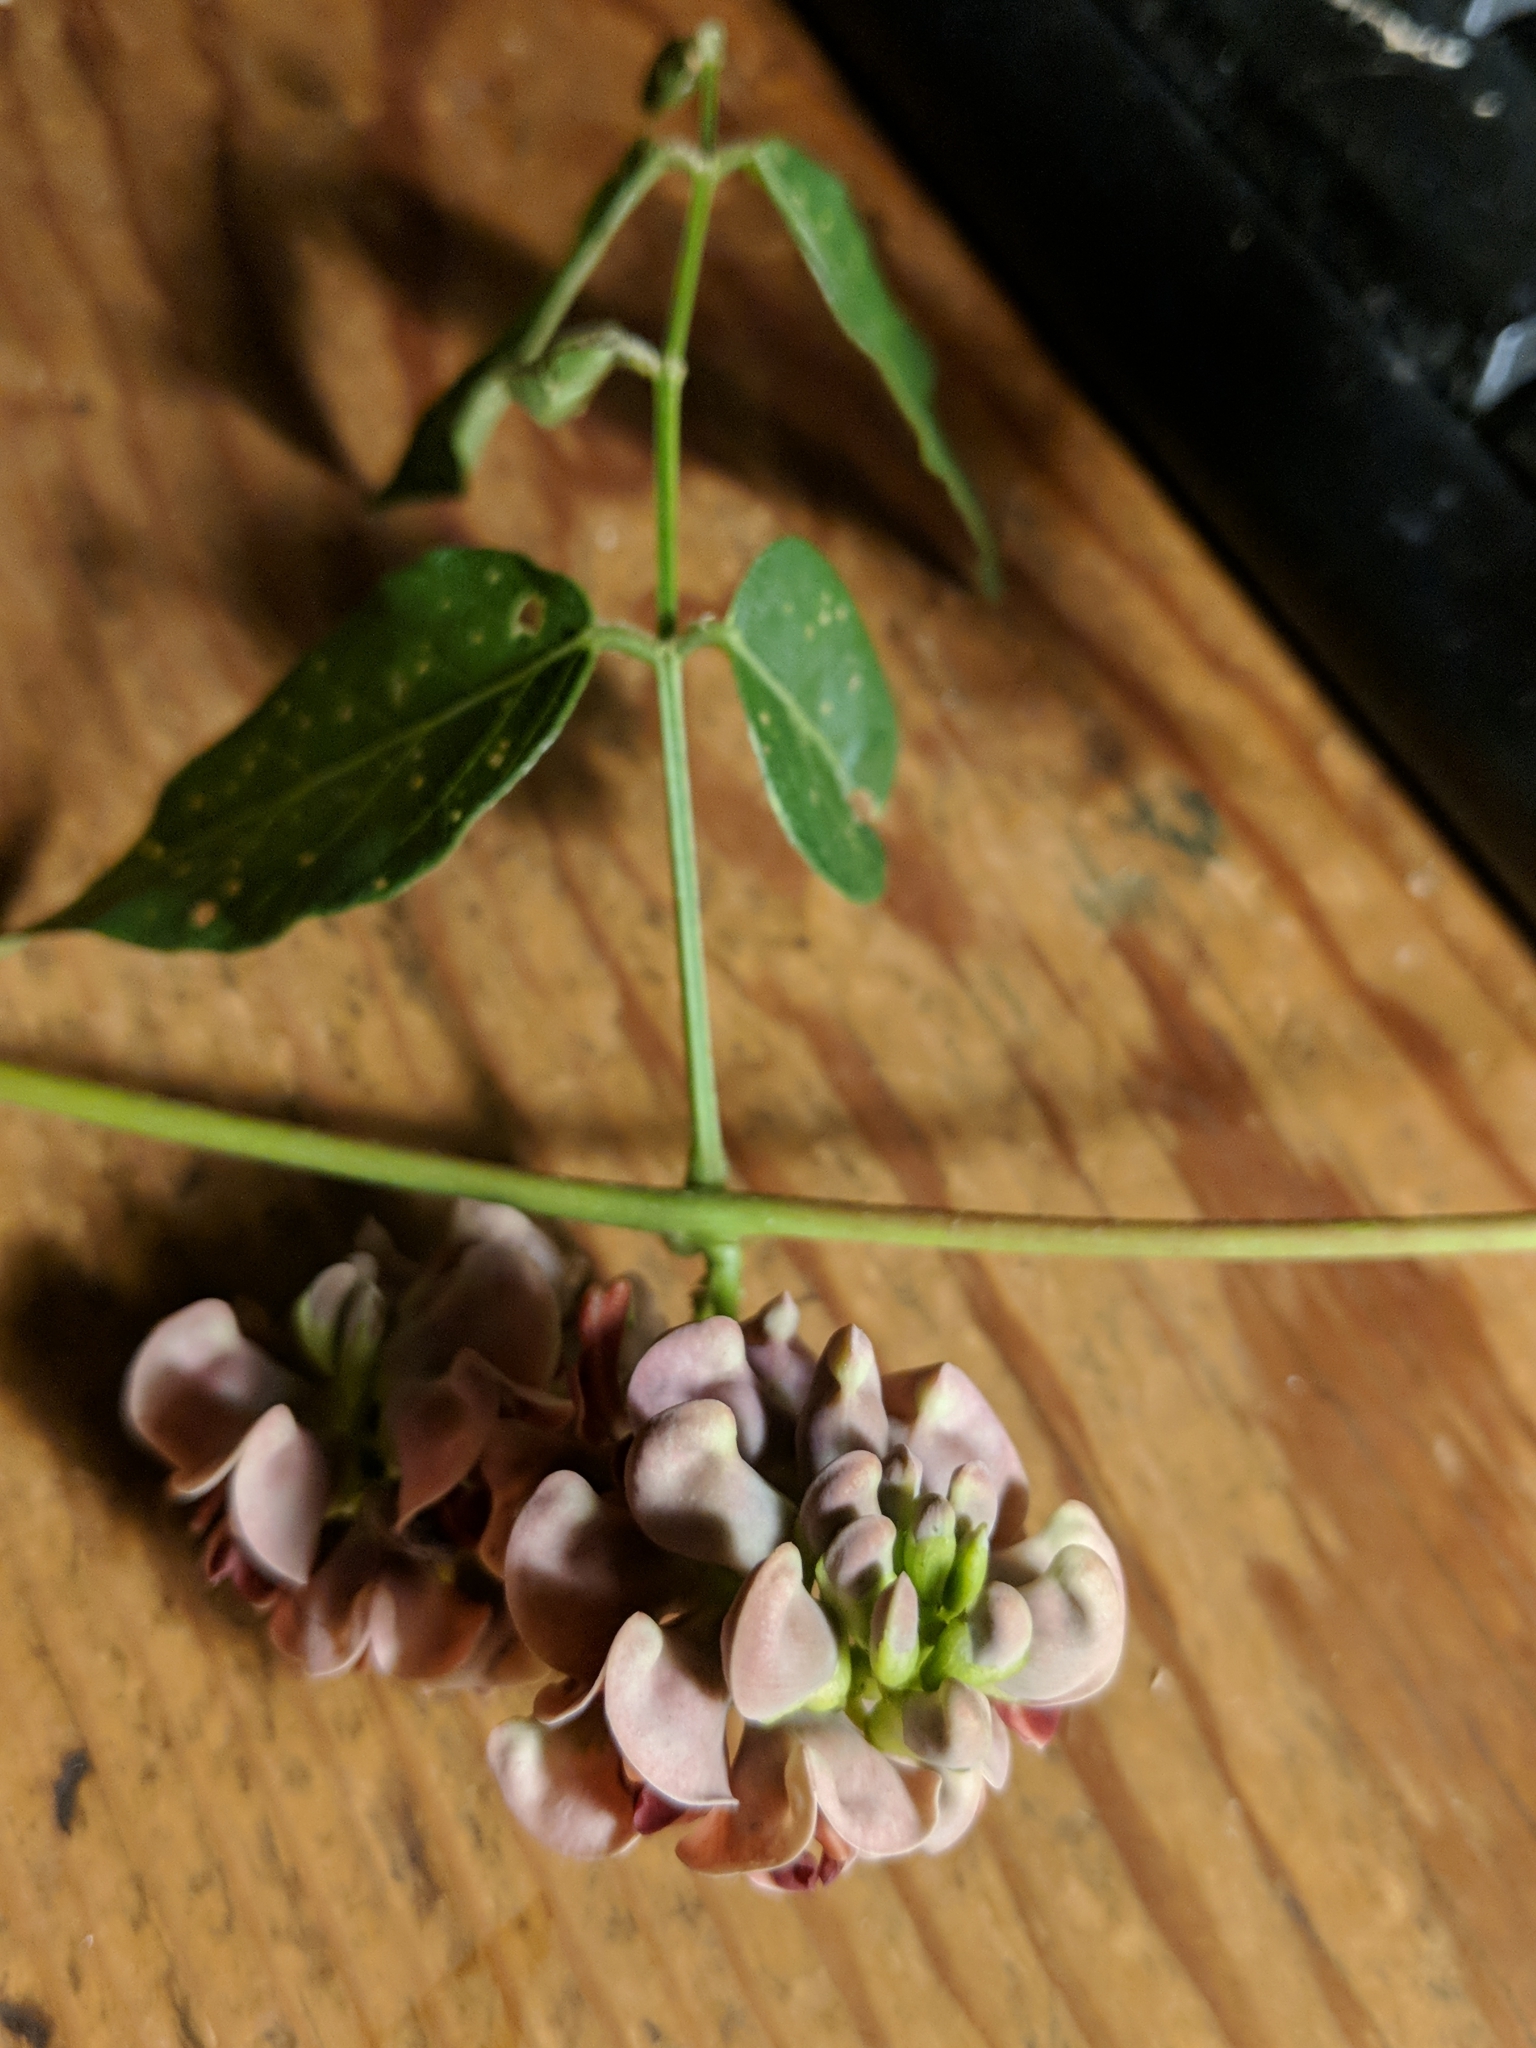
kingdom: Plantae
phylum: Tracheophyta
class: Magnoliopsida
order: Fabales
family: Fabaceae
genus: Apios
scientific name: Apios americana
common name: American potato-bean
